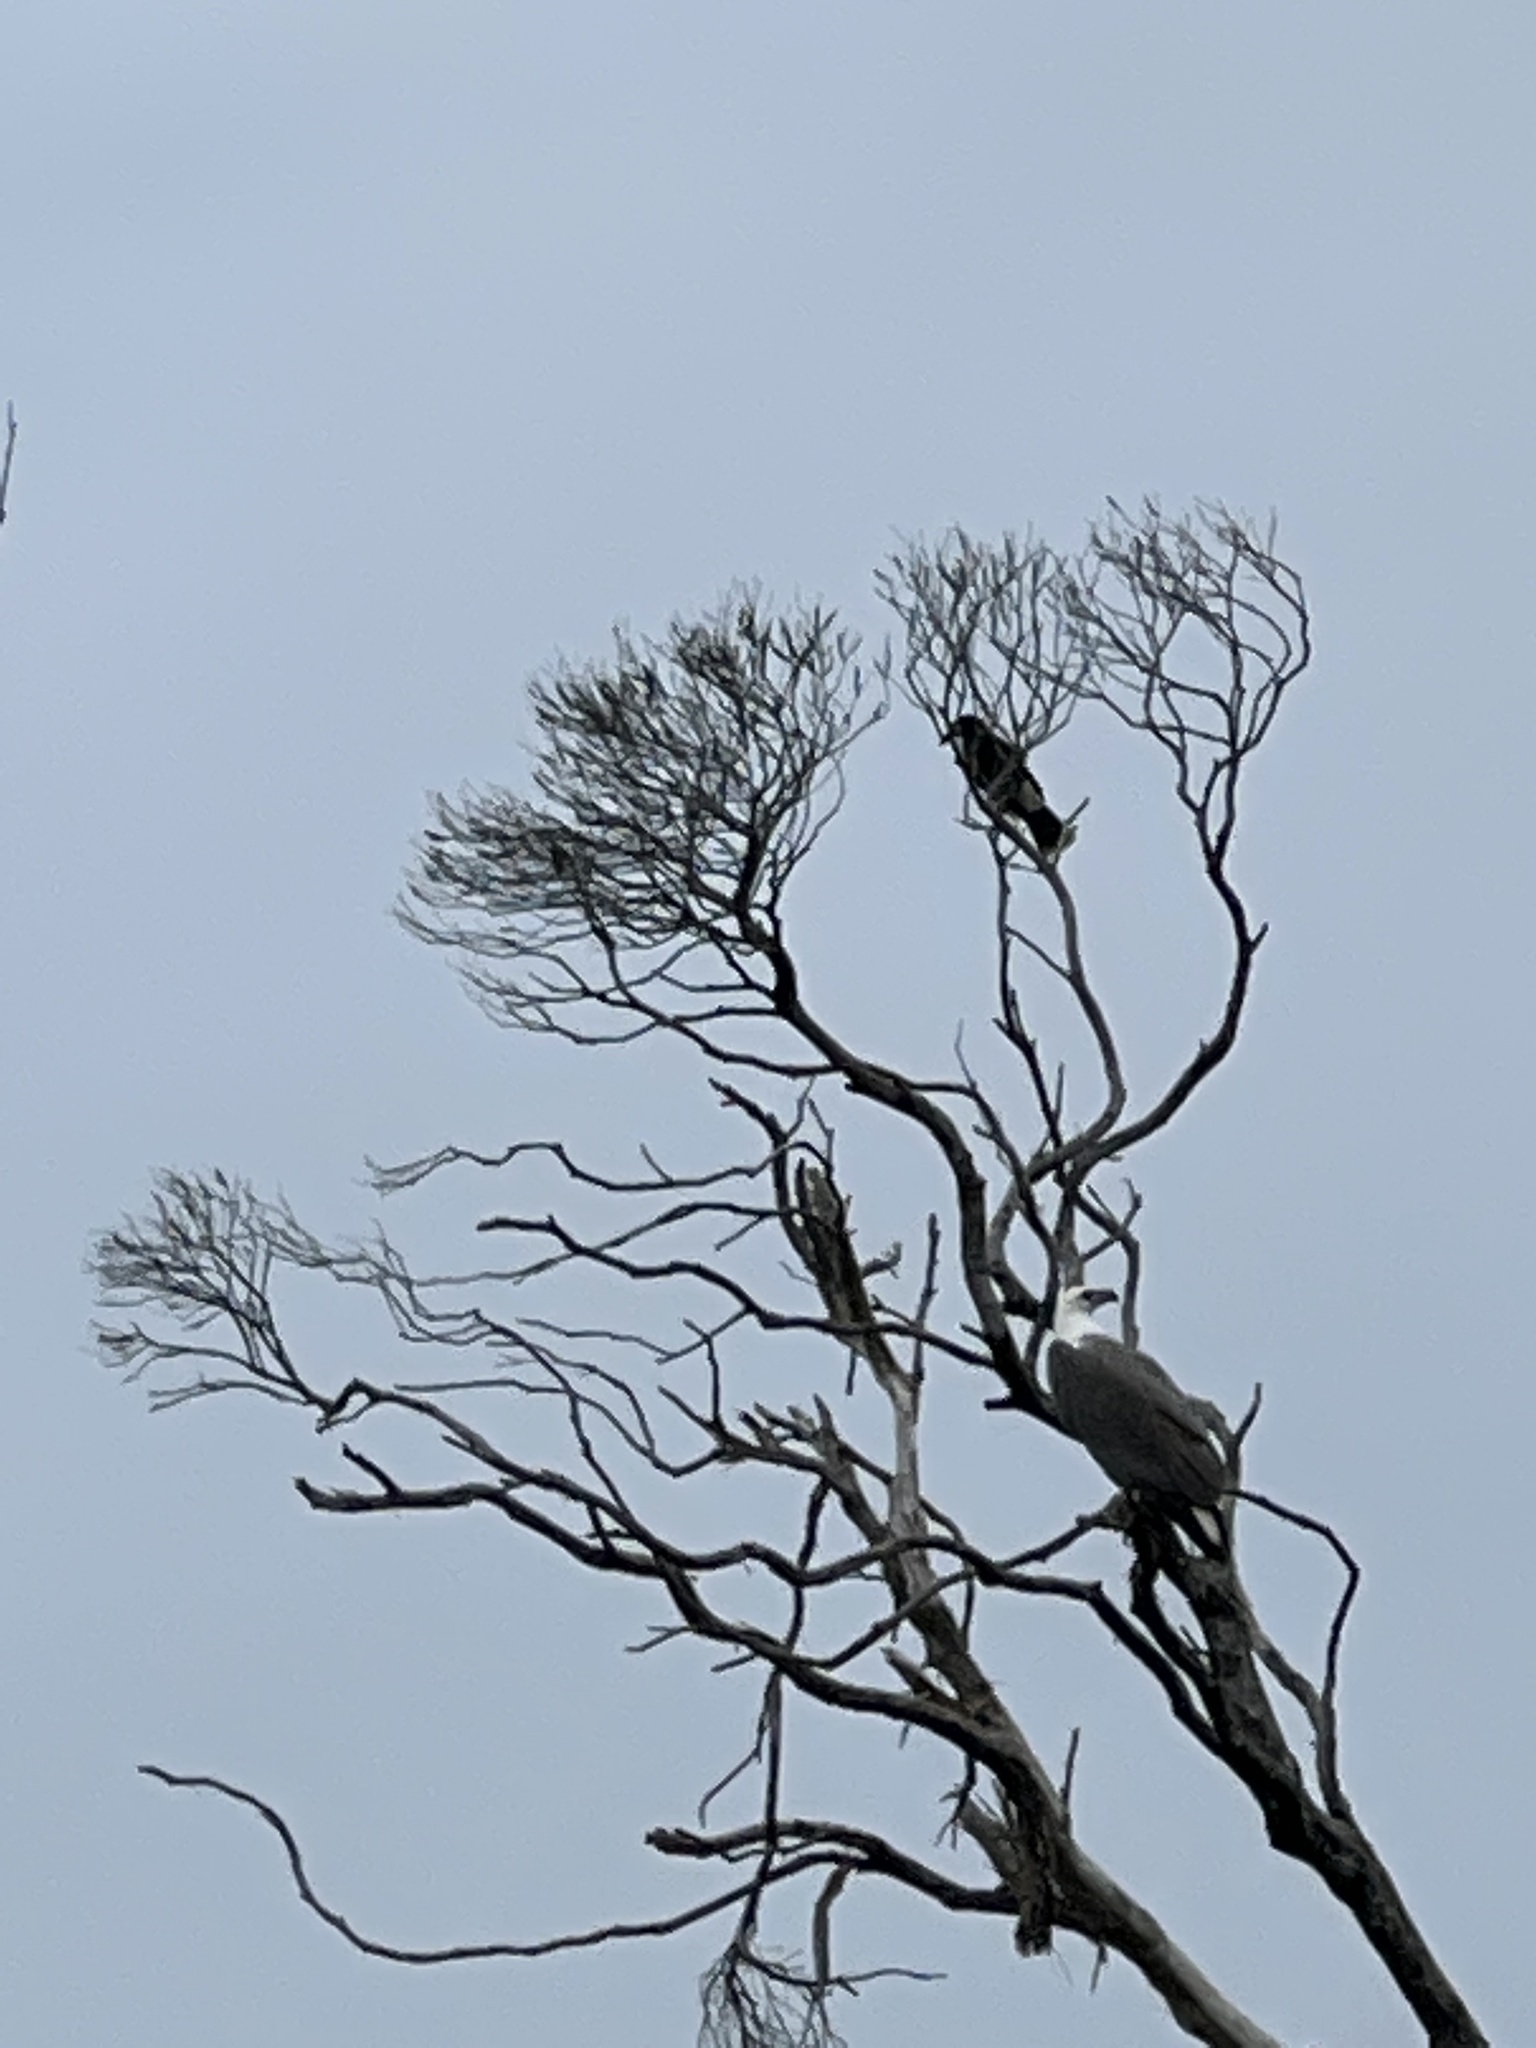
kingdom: Animalia
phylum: Chordata
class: Aves
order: Accipitriformes
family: Accipitridae
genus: Haliaeetus
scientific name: Haliaeetus leucogaster
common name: White-bellied sea eagle
